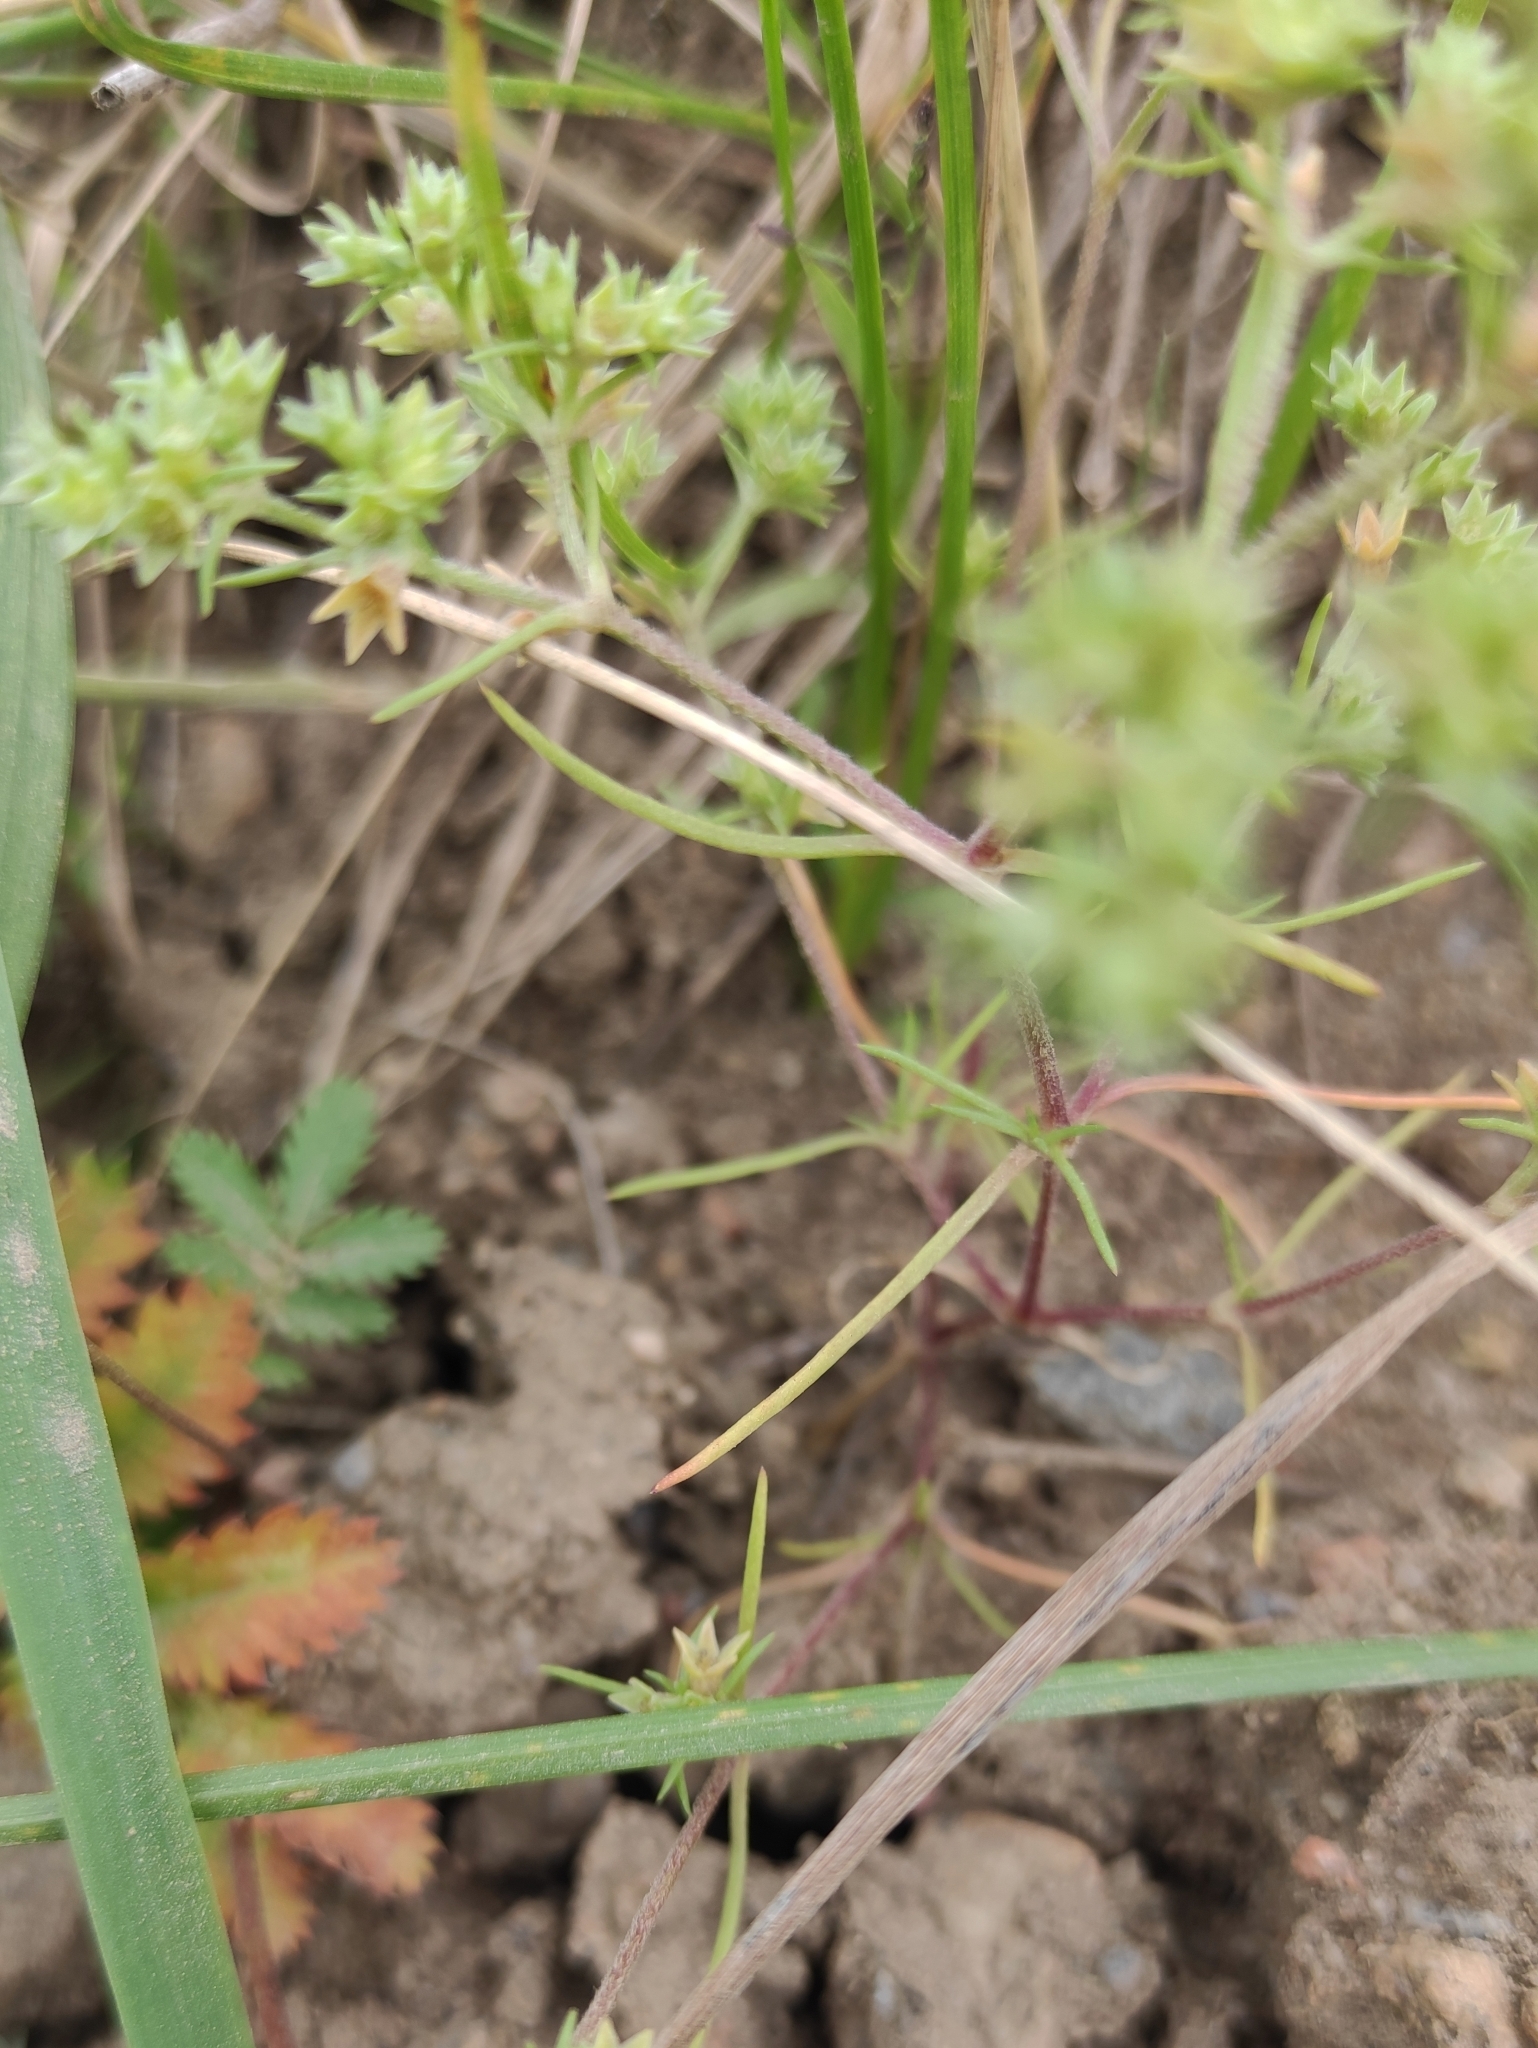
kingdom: Plantae
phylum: Tracheophyta
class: Magnoliopsida
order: Caryophyllales
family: Caryophyllaceae
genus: Scleranthus
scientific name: Scleranthus annuus
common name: Annual knawel
